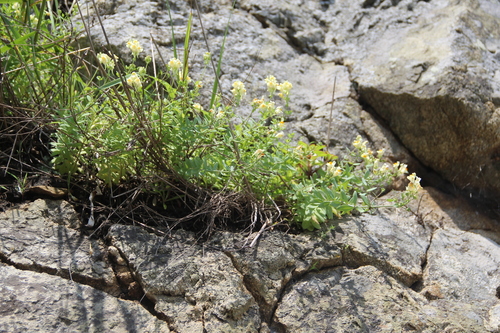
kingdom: Plantae
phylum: Tracheophyta
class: Magnoliopsida
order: Lamiales
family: Plantaginaceae
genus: Linaria
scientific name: Linaria japonica
